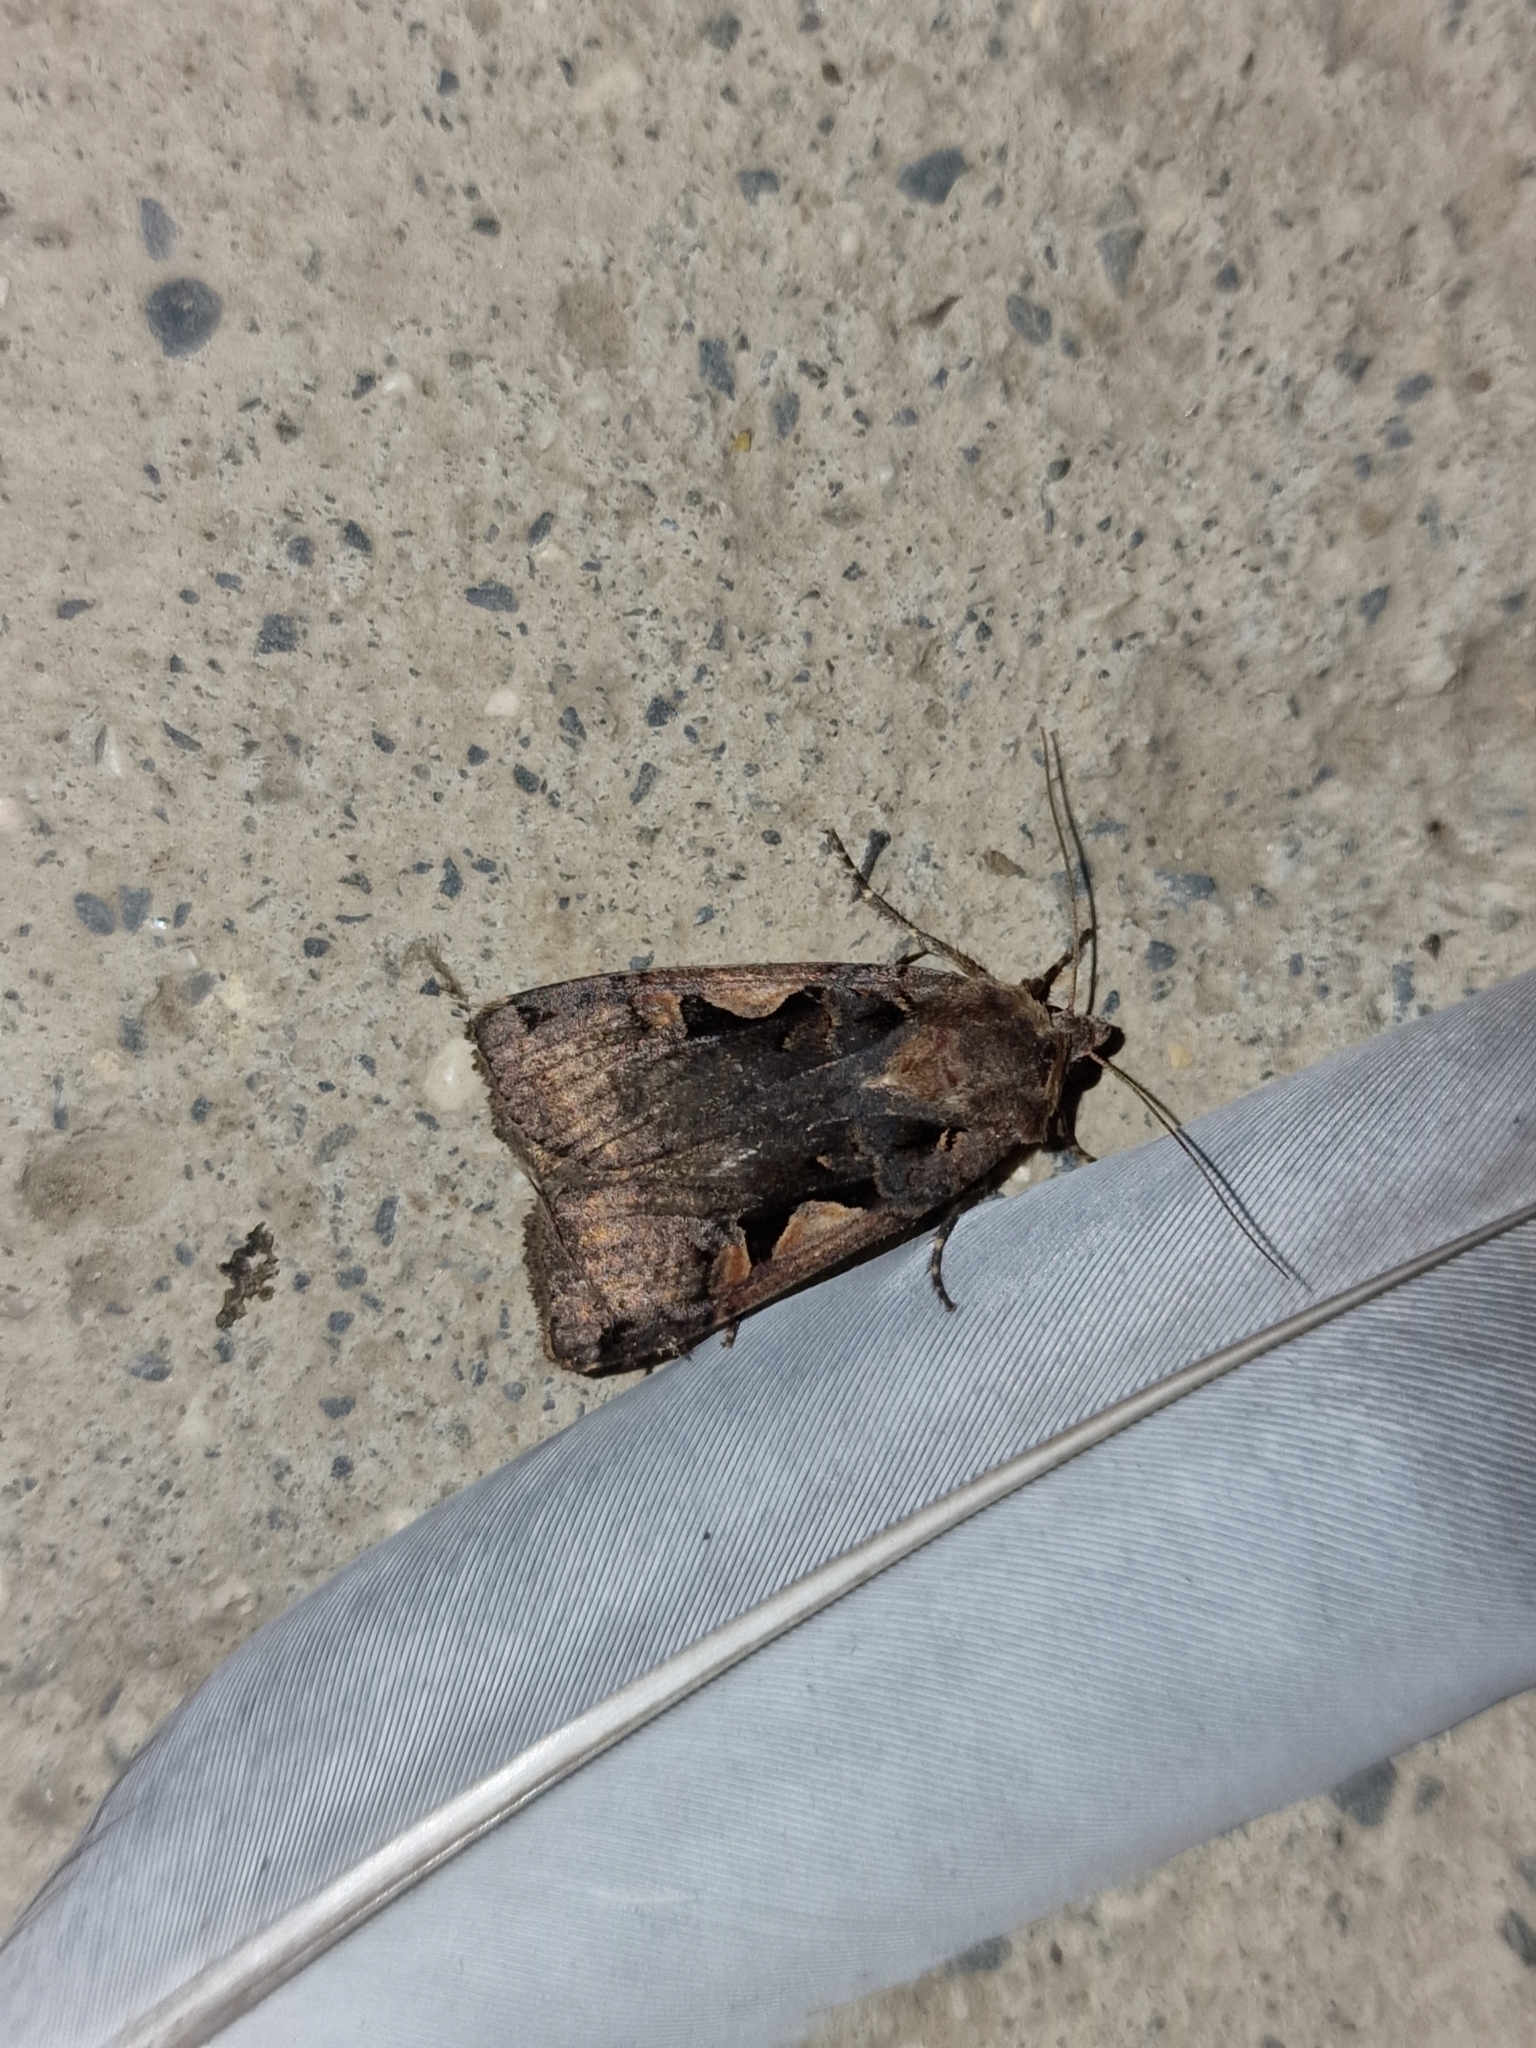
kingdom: Animalia
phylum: Arthropoda
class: Insecta
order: Lepidoptera
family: Noctuidae
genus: Xestia
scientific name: Xestia c-nigrum
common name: Setaceous hebrew character
